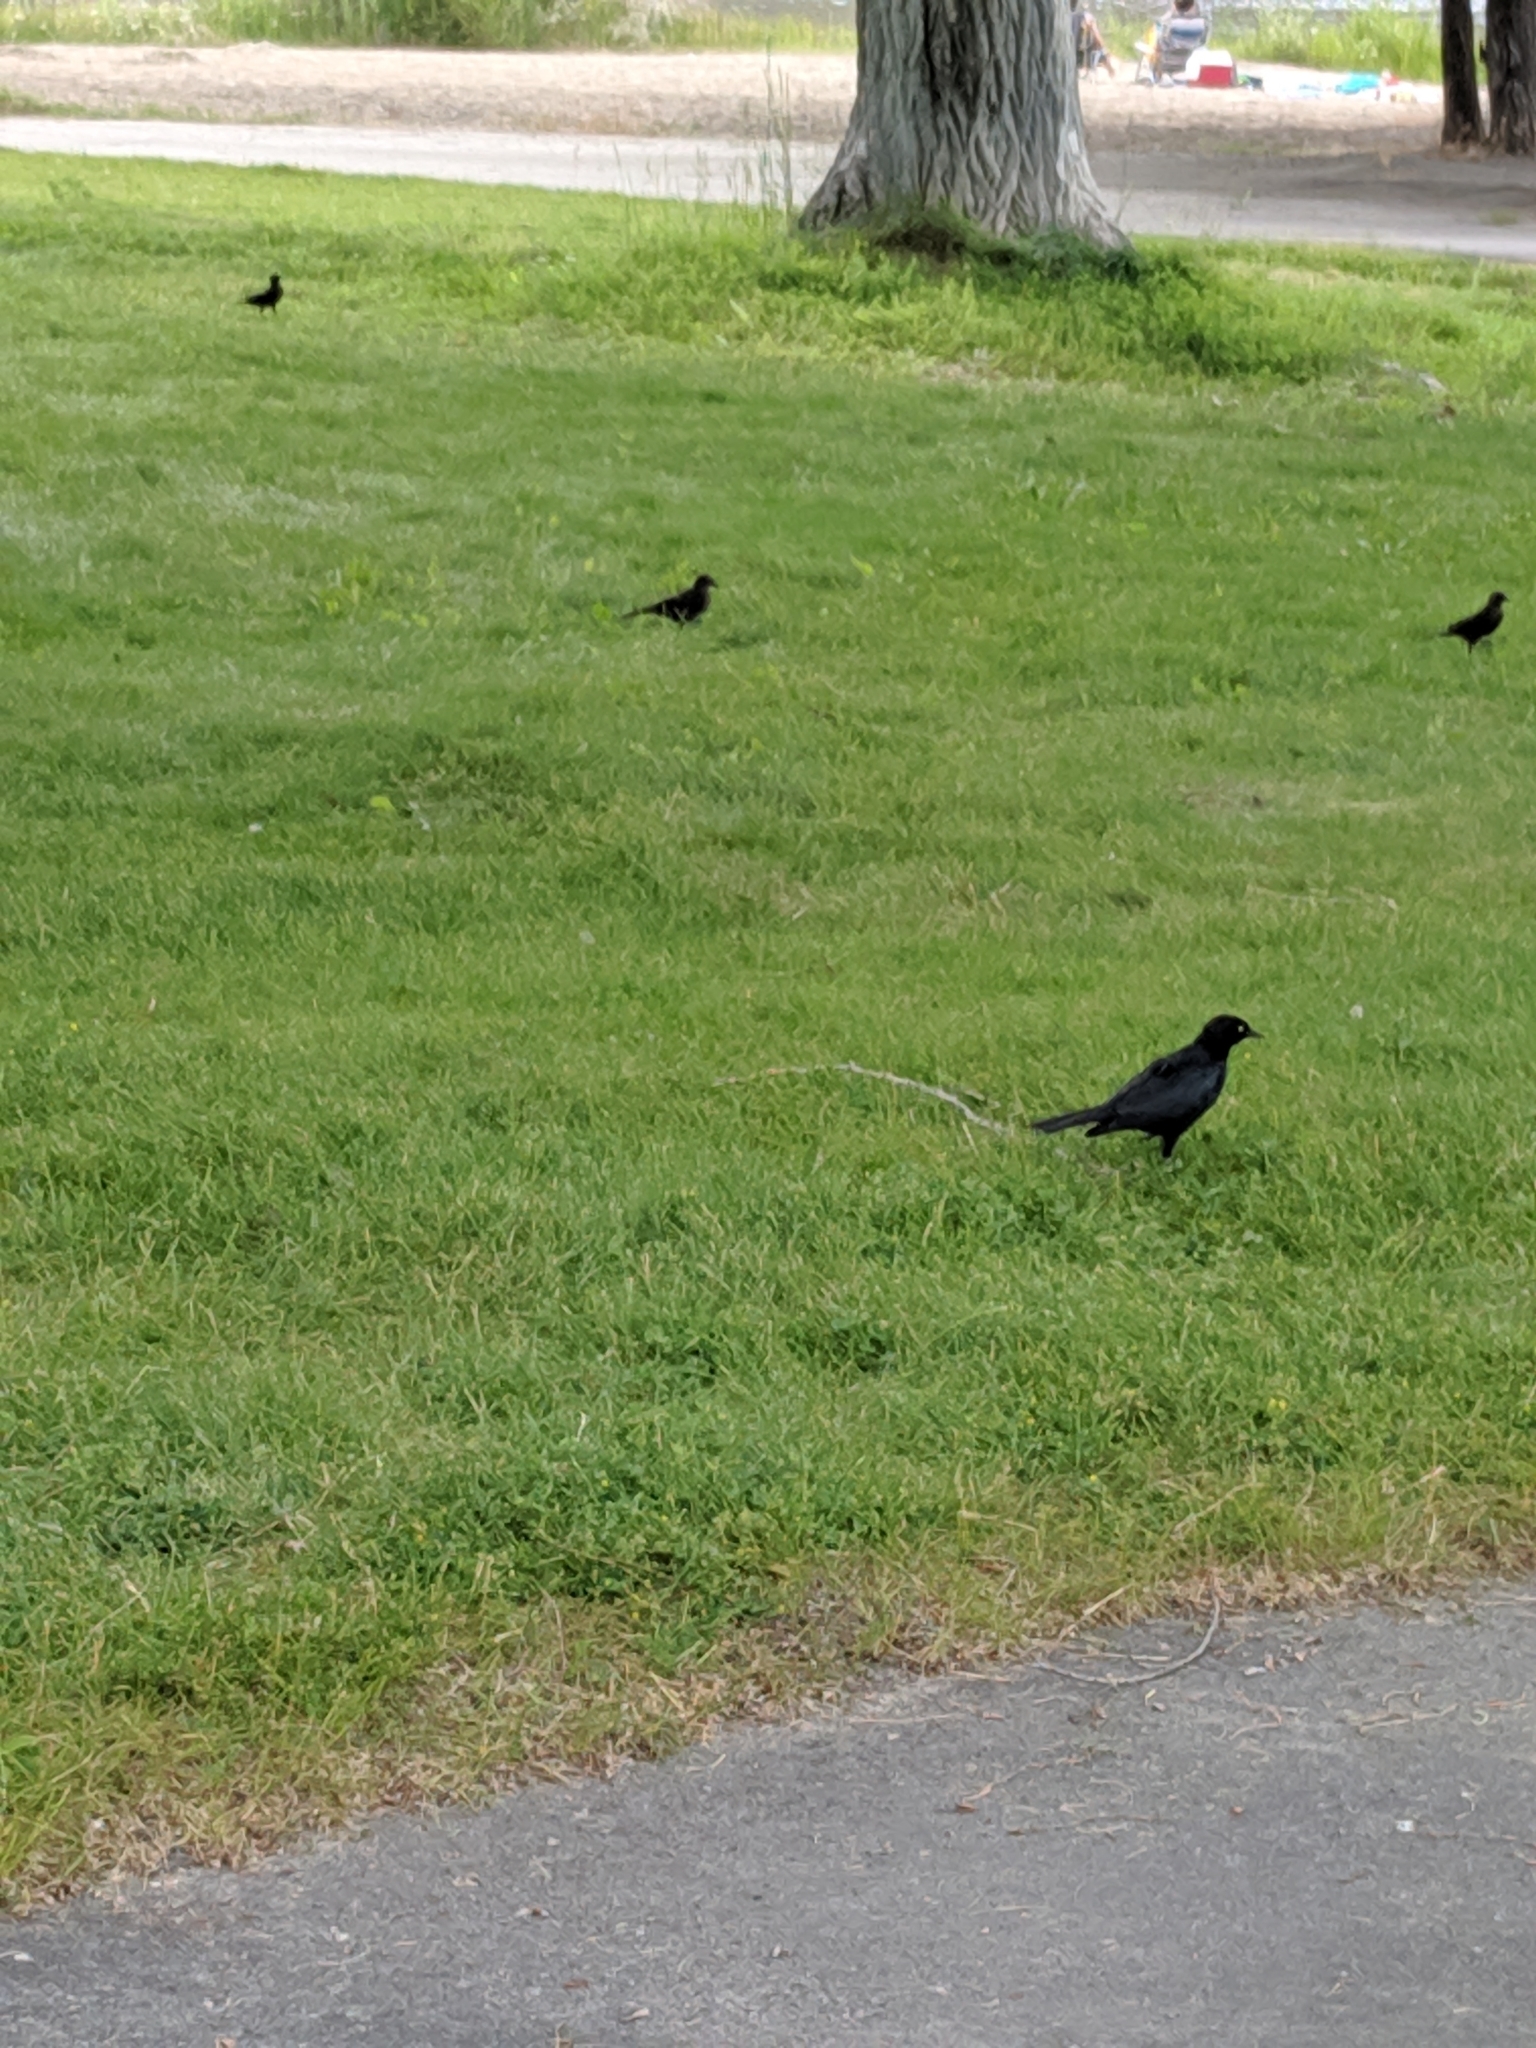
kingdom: Animalia
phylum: Chordata
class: Aves
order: Passeriformes
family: Icteridae
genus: Euphagus
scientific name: Euphagus cyanocephalus
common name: Brewer's blackbird
